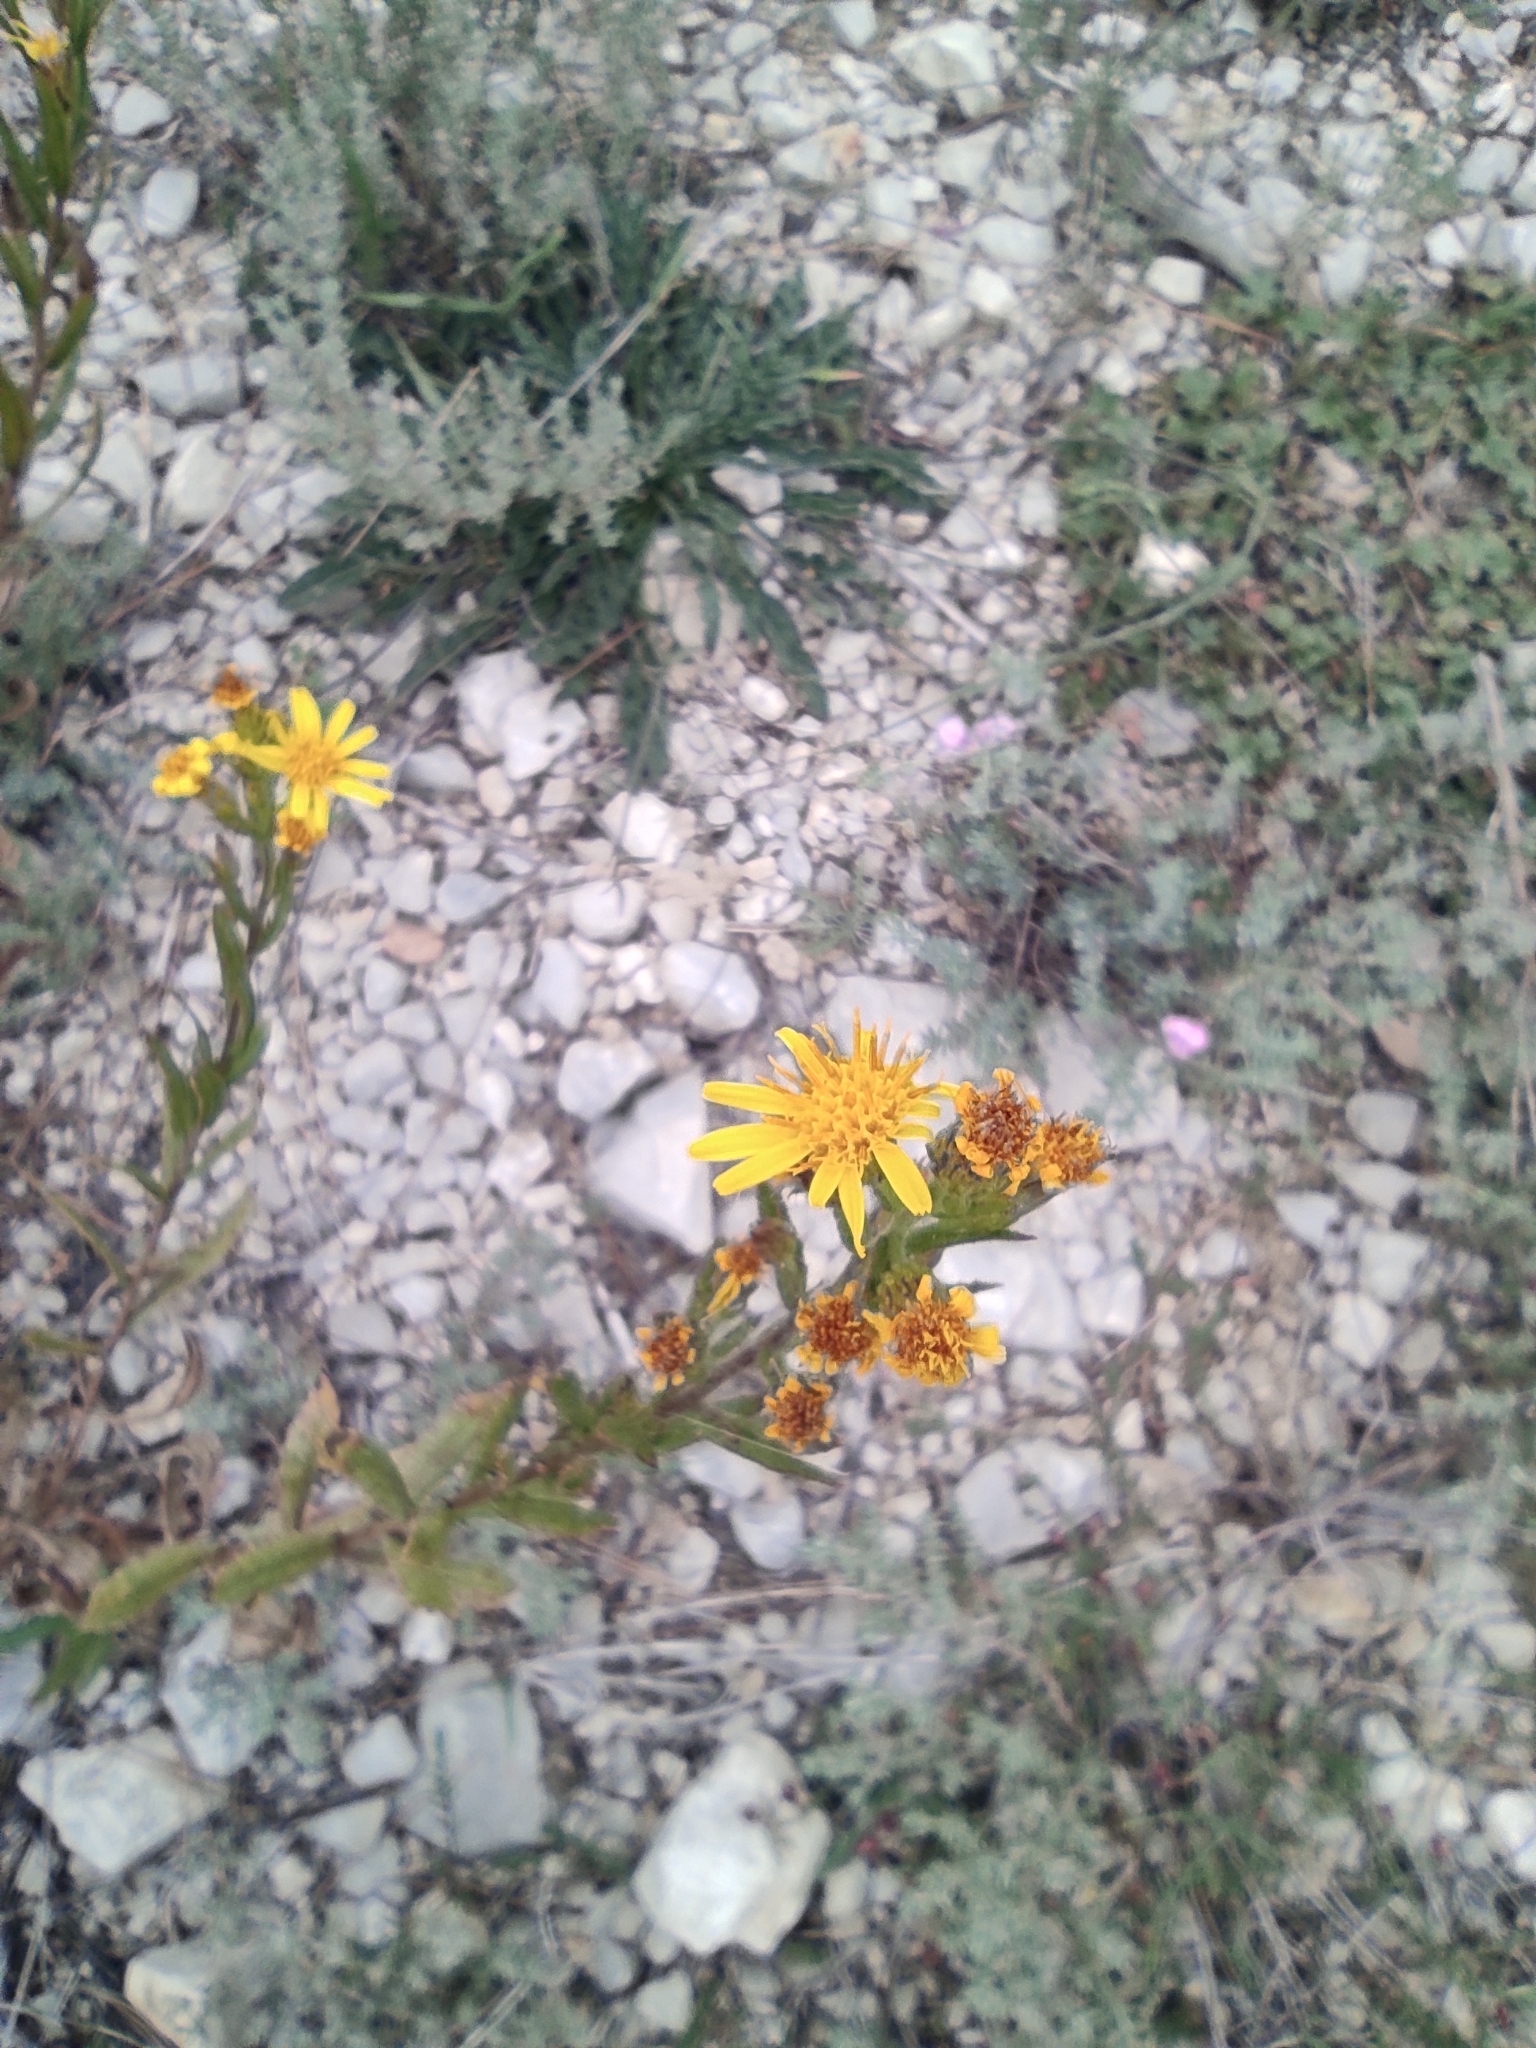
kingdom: Plantae
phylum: Tracheophyta
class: Magnoliopsida
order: Asterales
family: Asteraceae
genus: Dittrichia
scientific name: Dittrichia viscosa
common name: Woody fleabane
